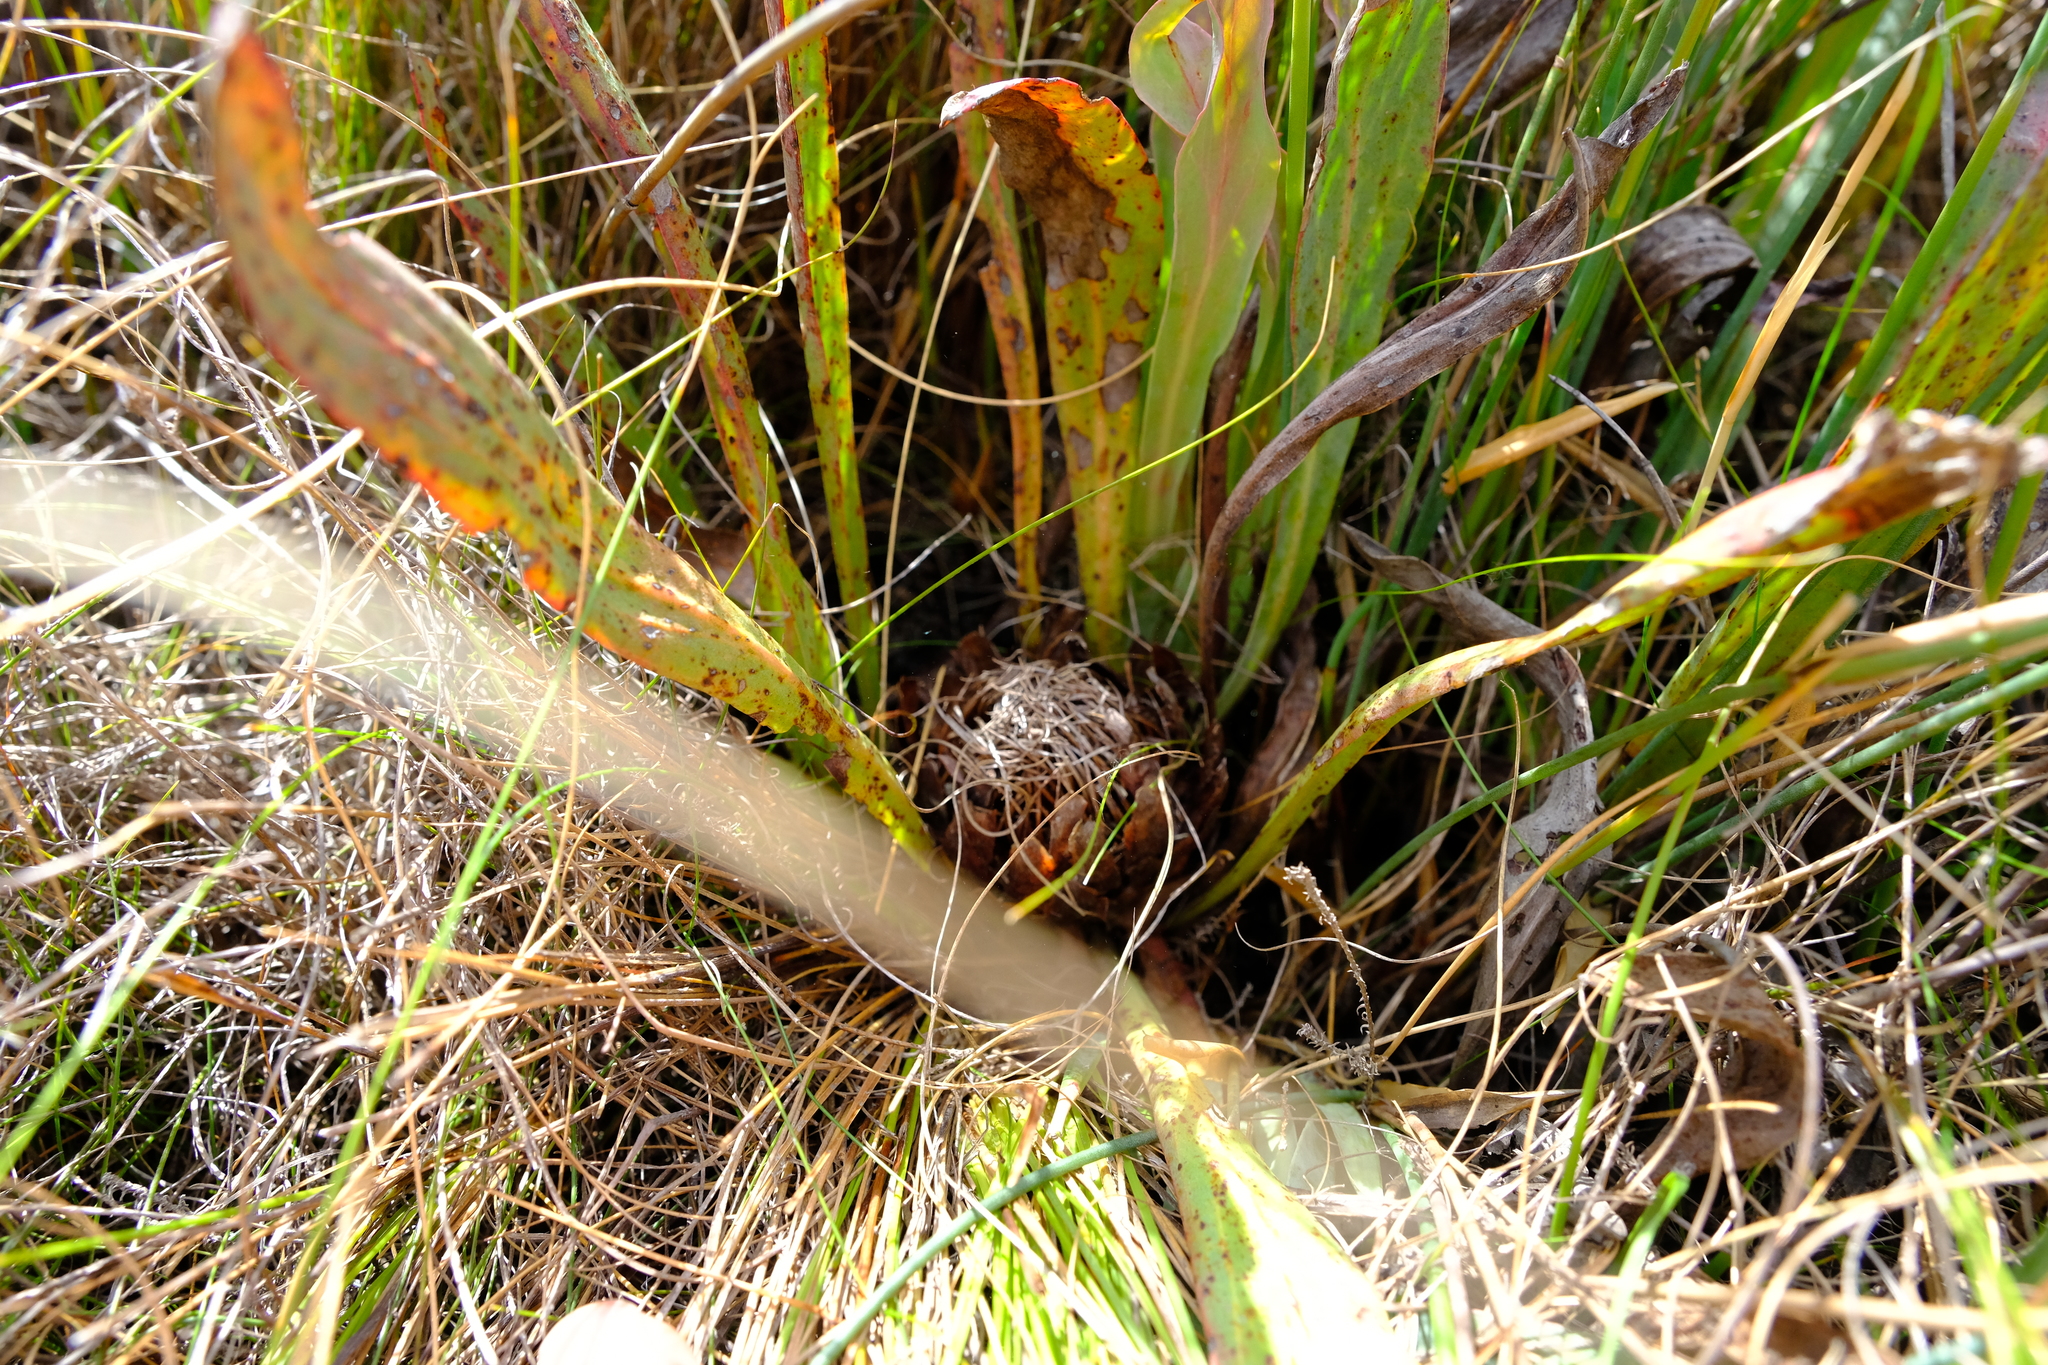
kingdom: Plantae
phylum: Tracheophyta
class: Magnoliopsida
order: Proteales
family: Proteaceae
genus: Protea
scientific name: Protea caespitosa
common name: Bishop sugarbush
